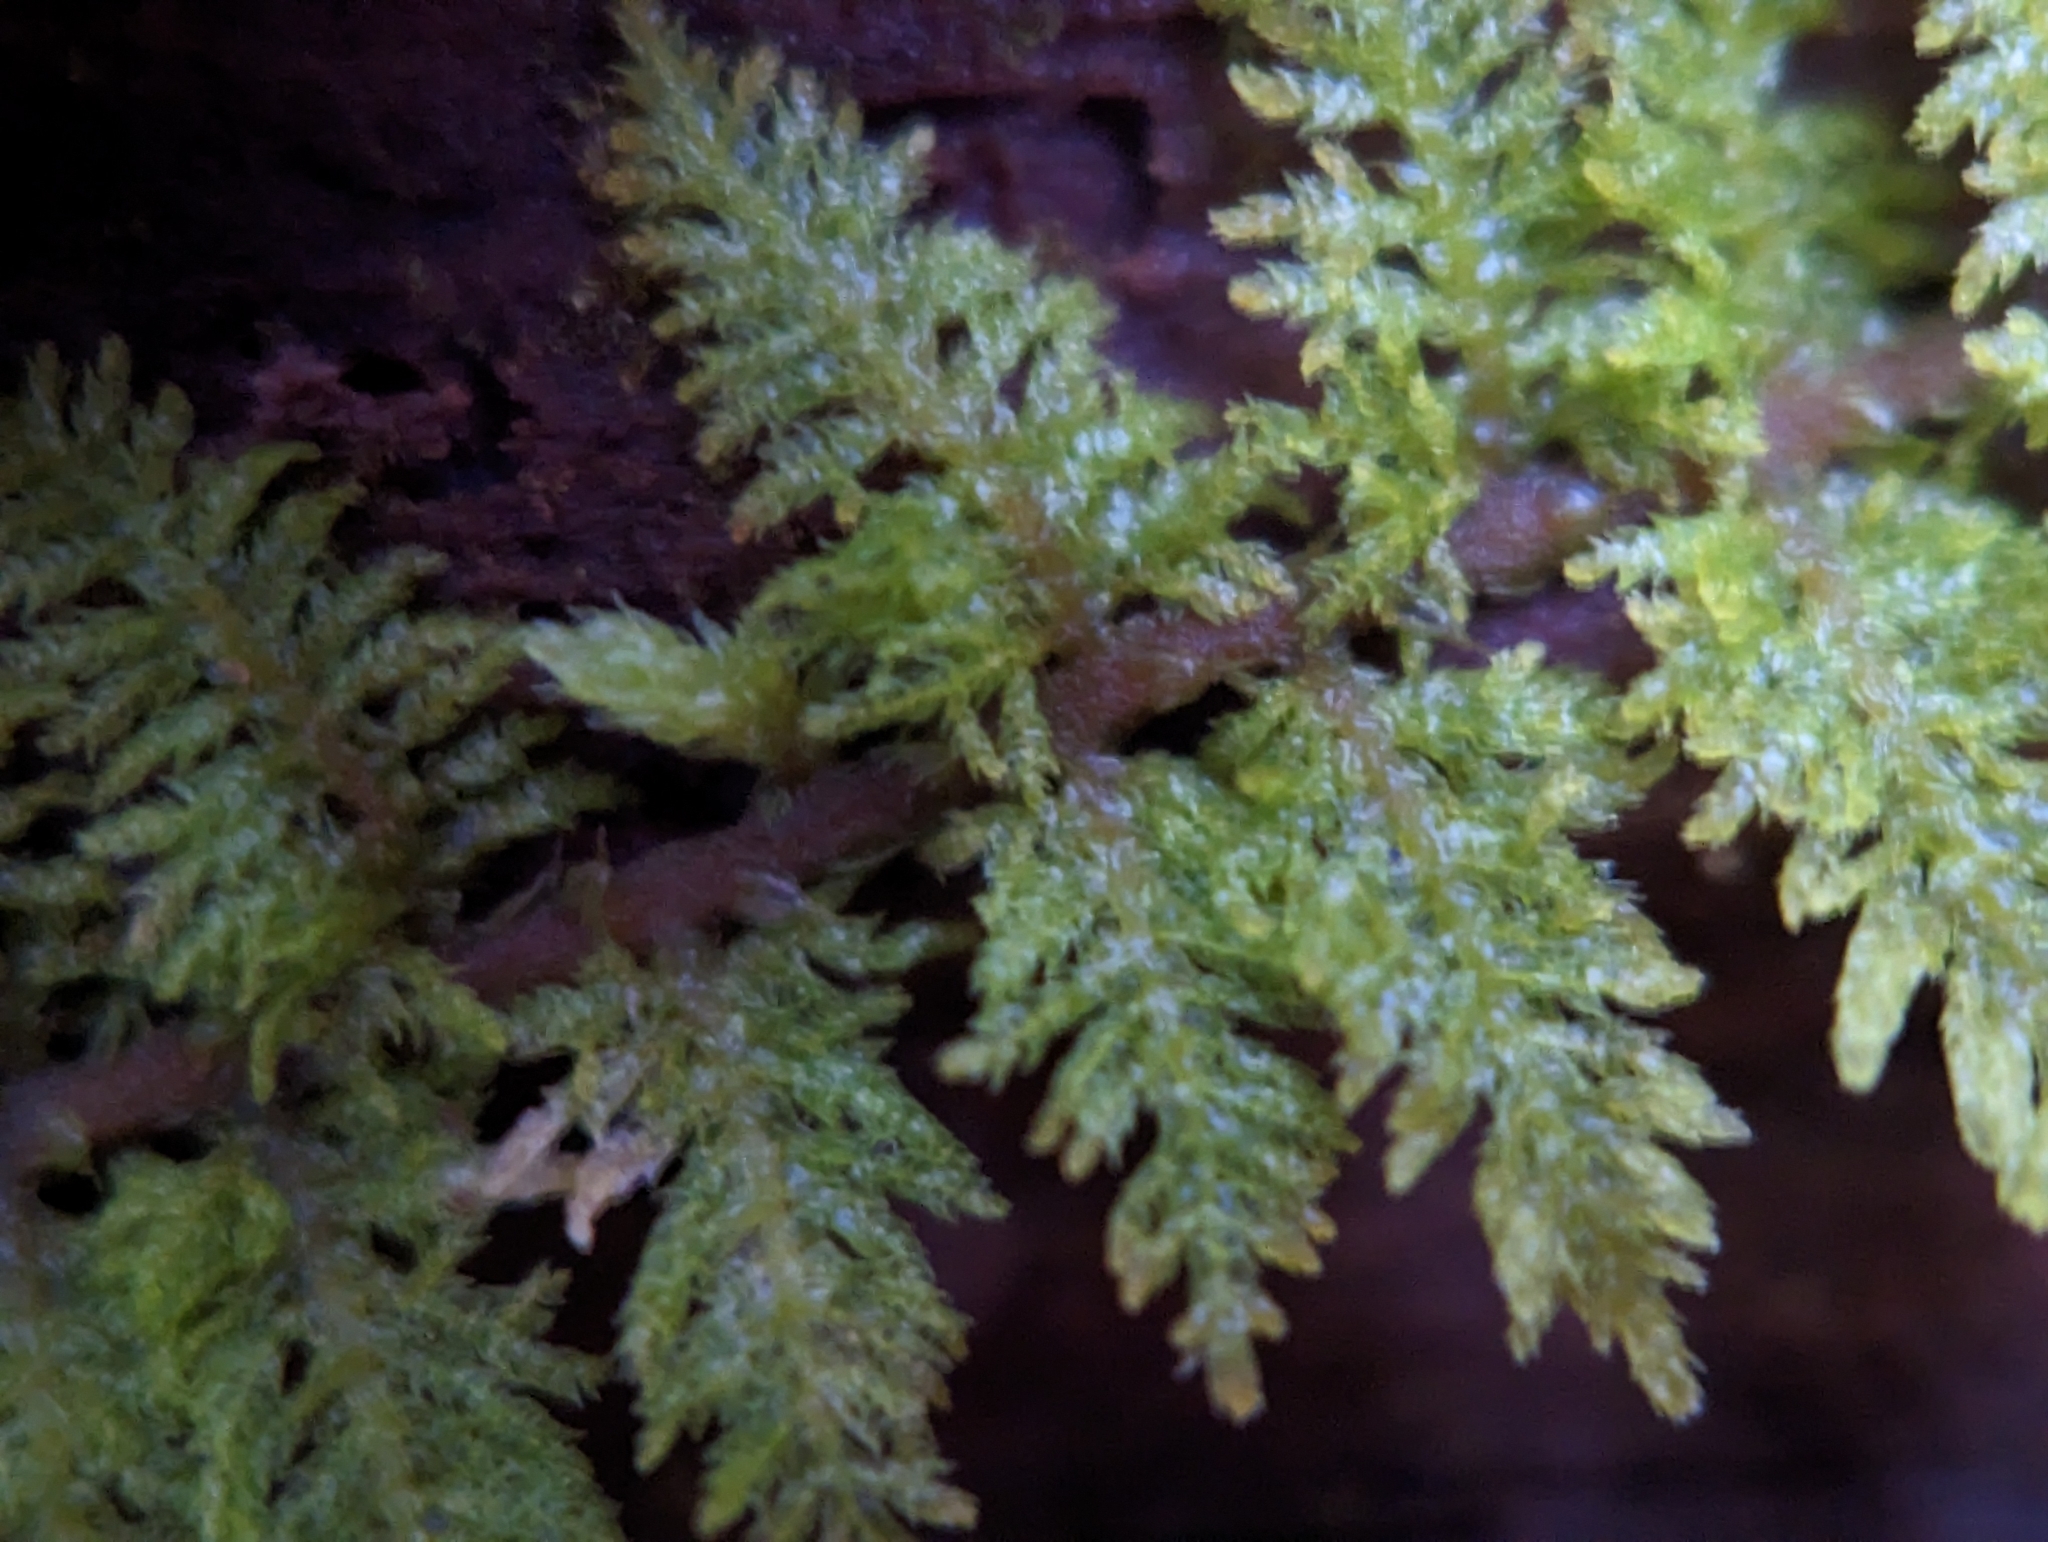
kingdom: Plantae
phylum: Bryophyta
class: Bryopsida
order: Hypnales
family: Thuidiaceae
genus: Thuidium
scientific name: Thuidium delicatulum
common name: Delicate fern moss
